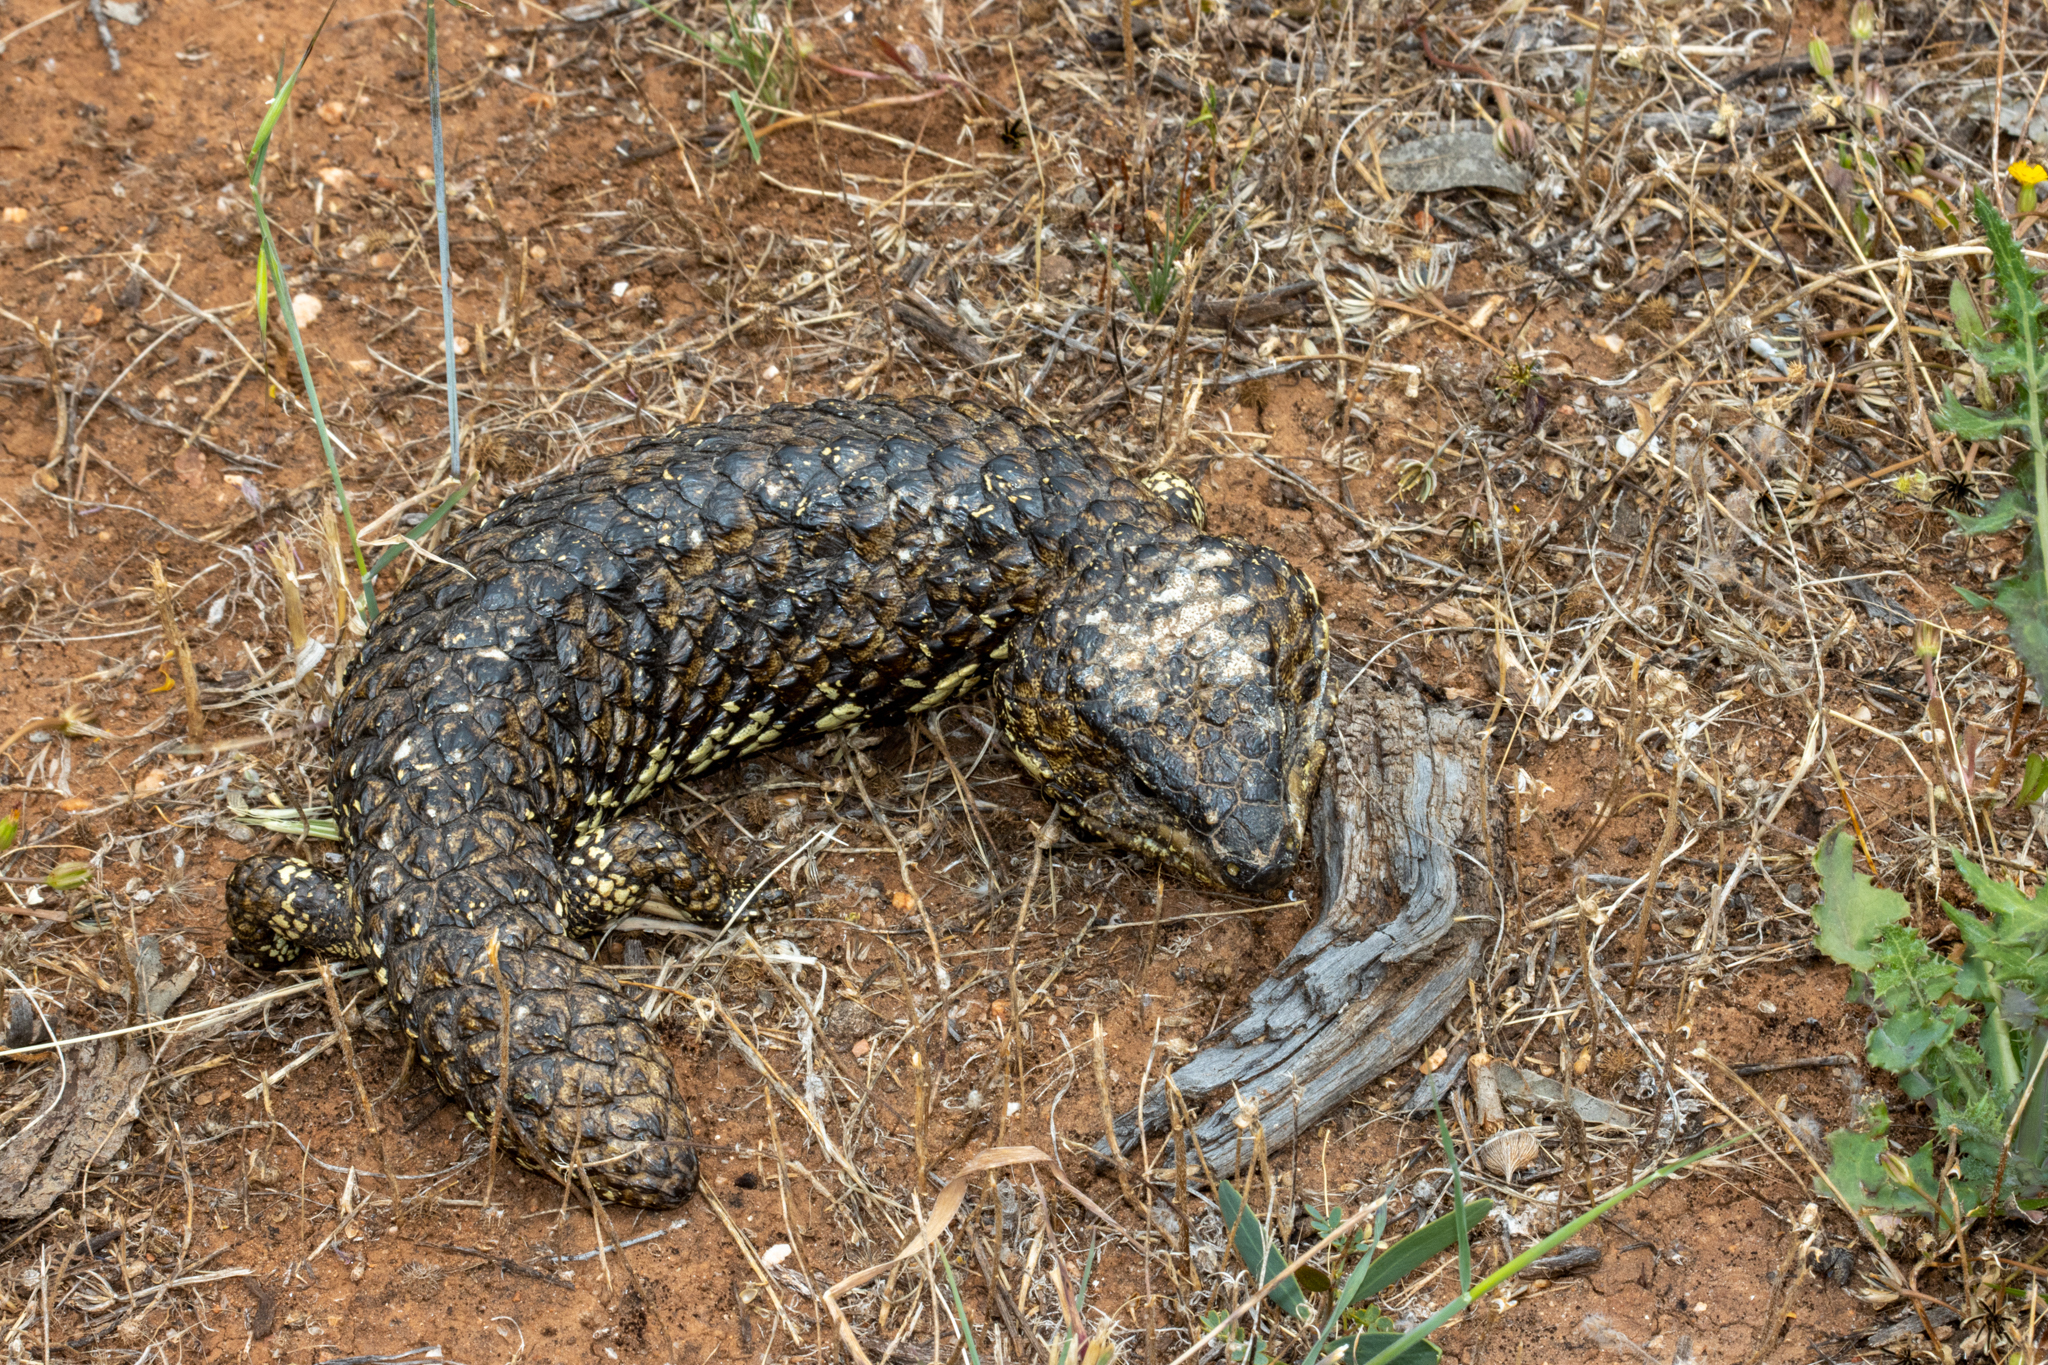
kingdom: Animalia
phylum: Chordata
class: Squamata
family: Scincidae
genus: Tiliqua
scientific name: Tiliqua rugosa
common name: Pinecone lizard
